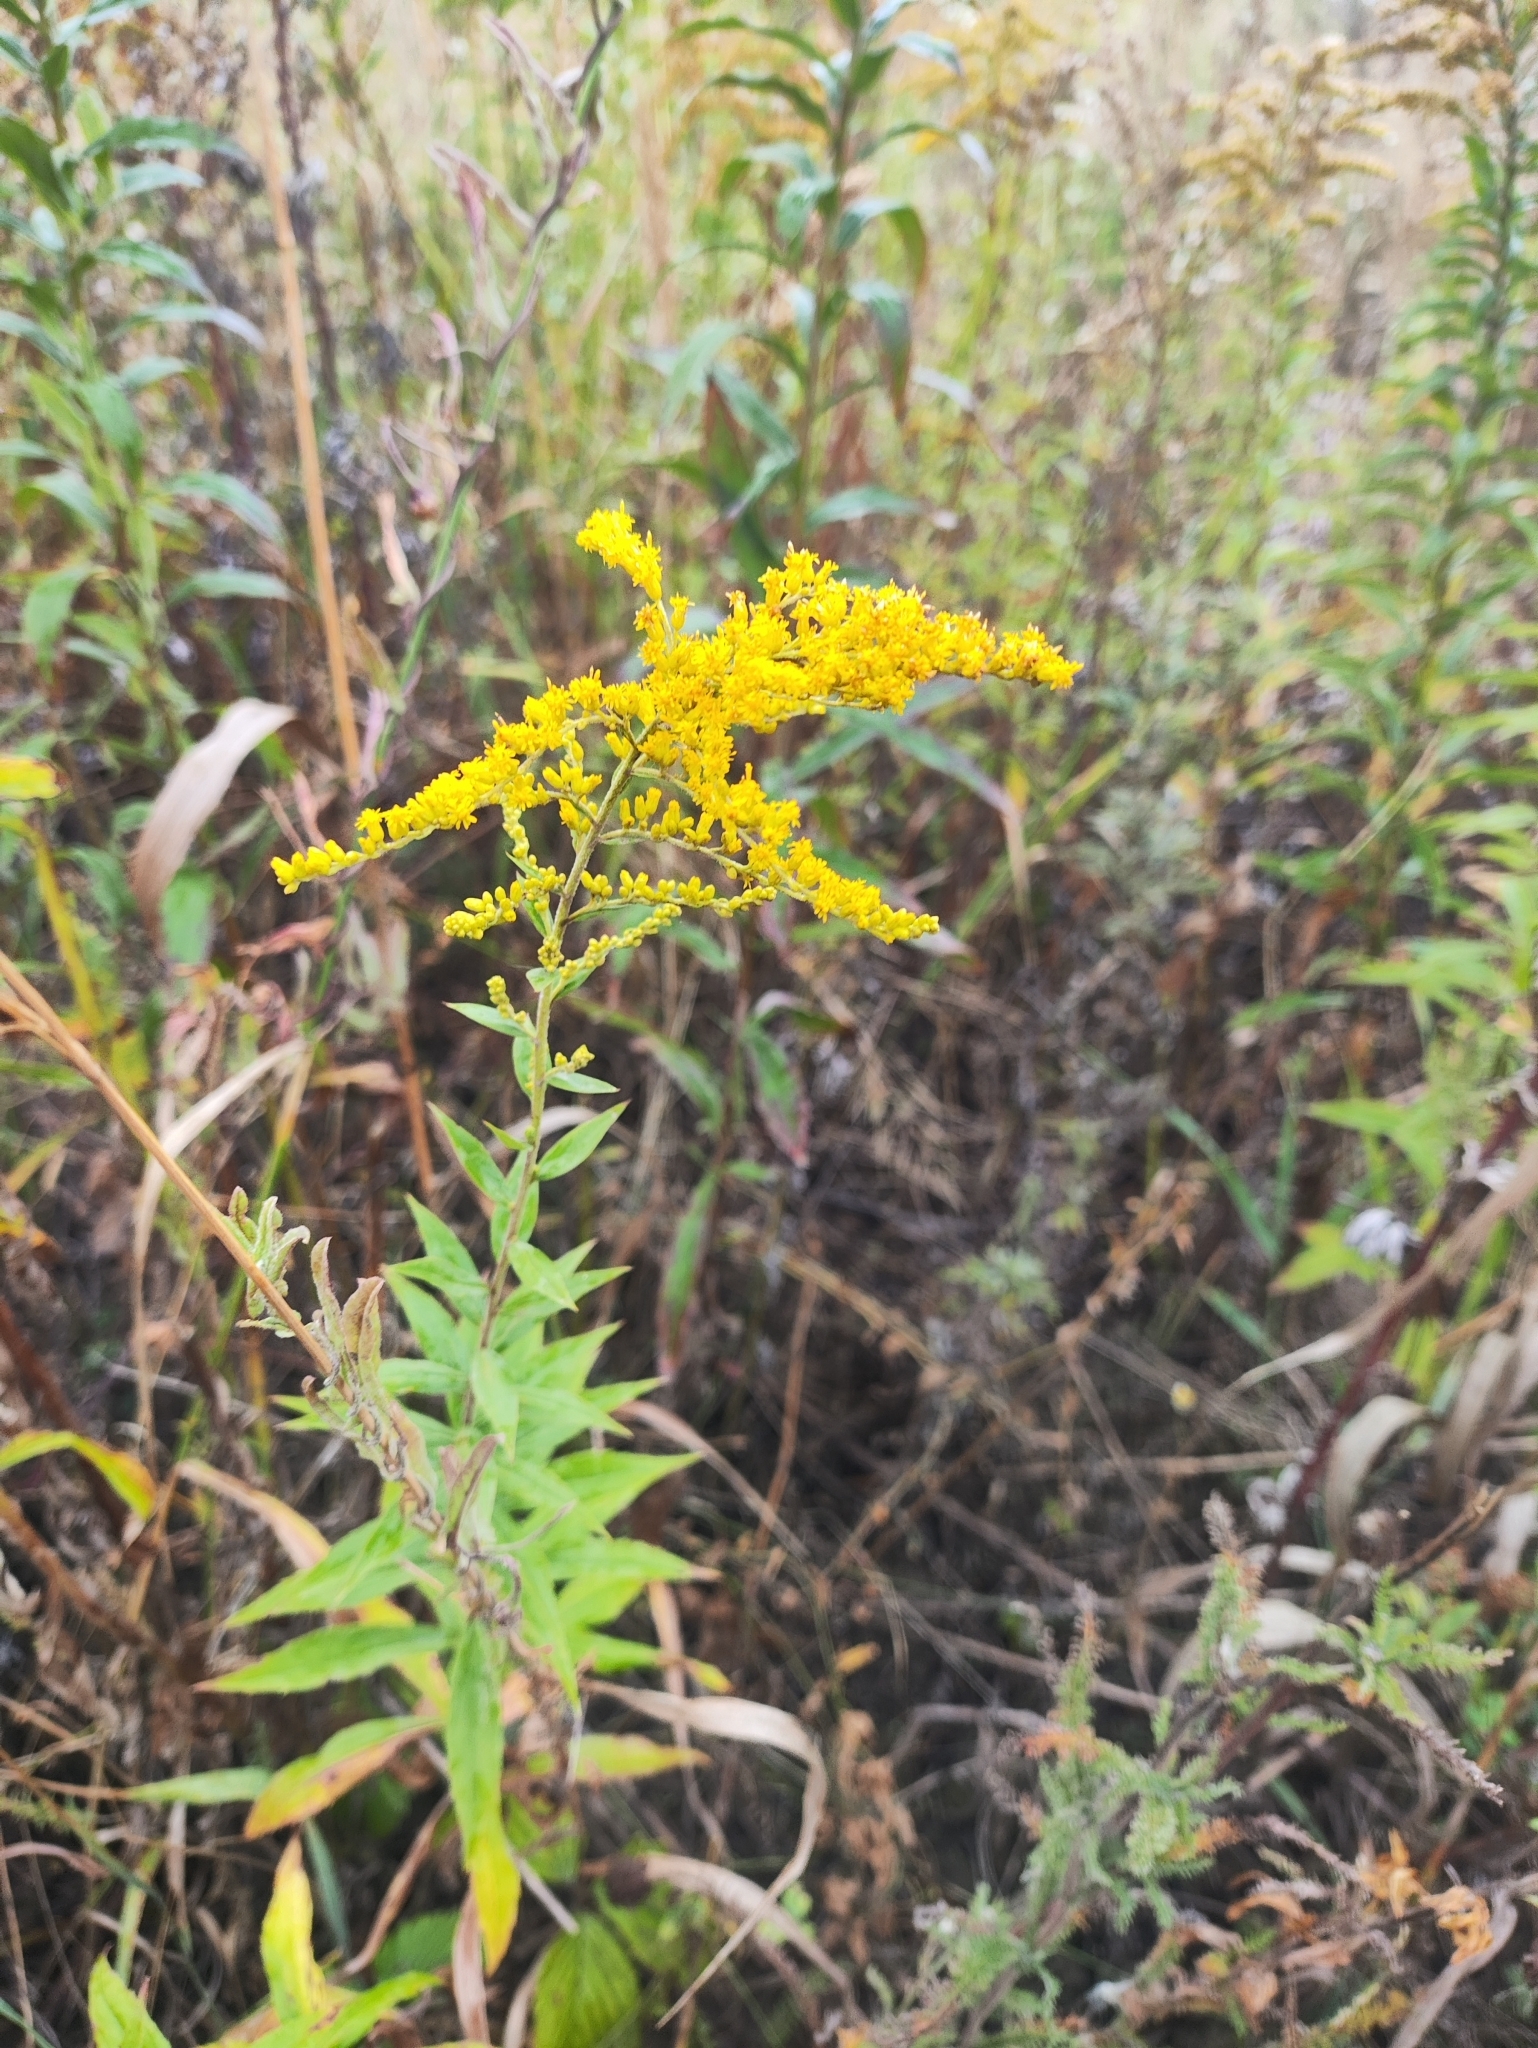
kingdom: Plantae
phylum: Tracheophyta
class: Magnoliopsida
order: Asterales
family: Asteraceae
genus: Solidago
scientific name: Solidago canadensis
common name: Canada goldenrod
